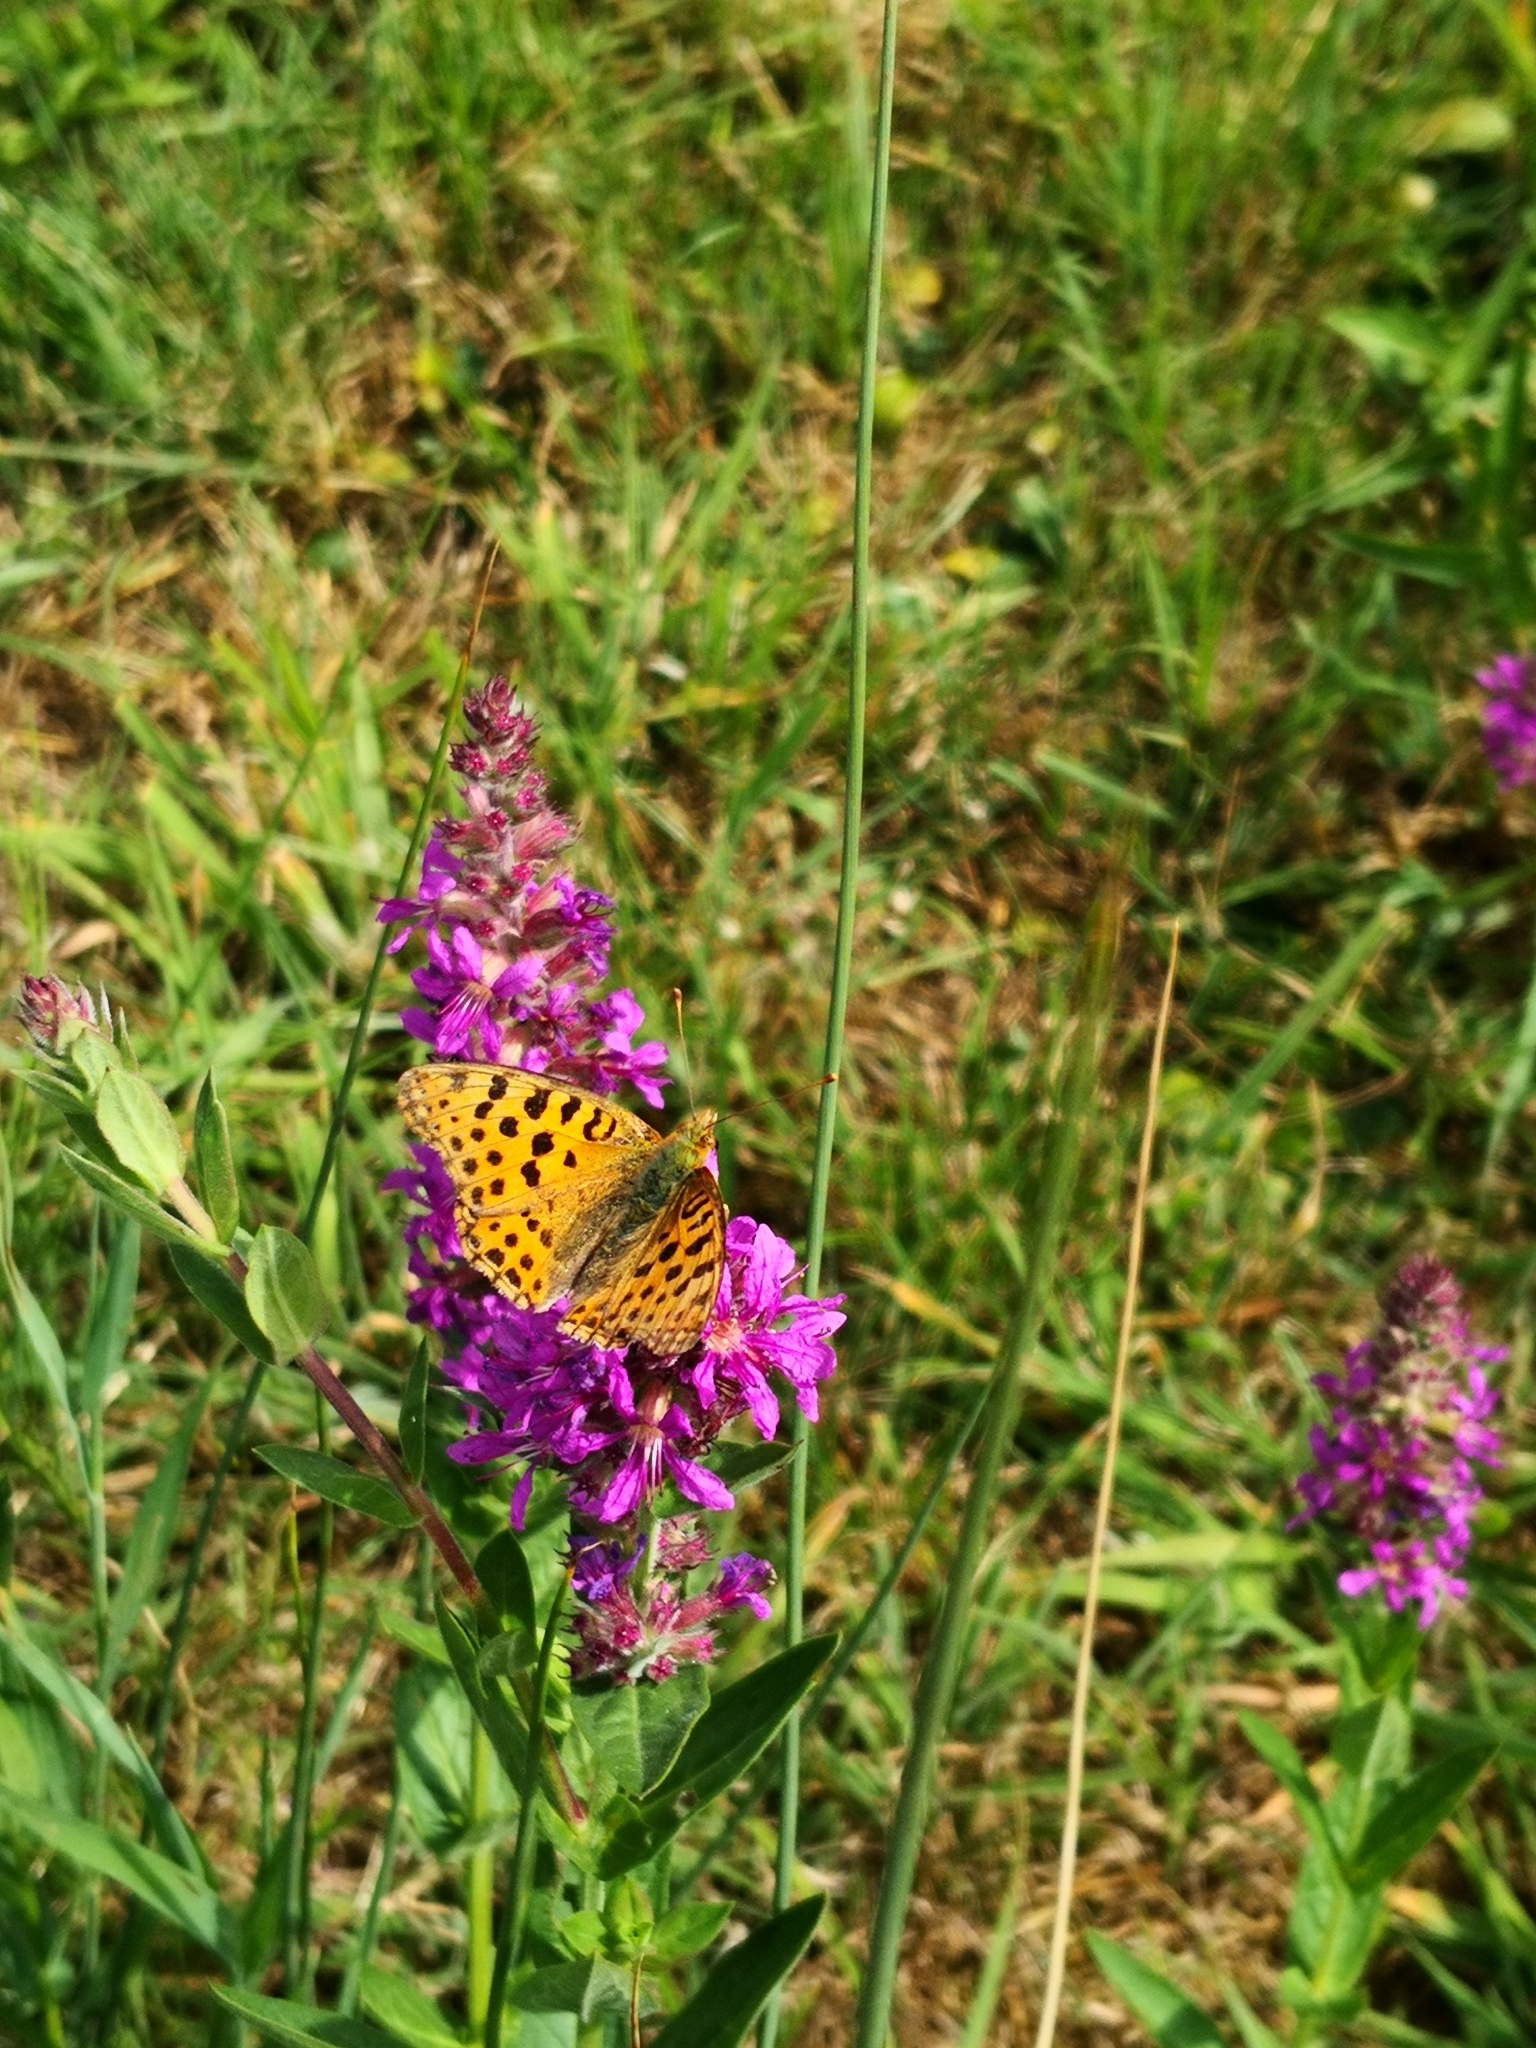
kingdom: Animalia
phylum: Arthropoda
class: Insecta
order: Lepidoptera
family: Nymphalidae
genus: Issoria
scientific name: Issoria lathonia
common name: Queen of spain fritillary
